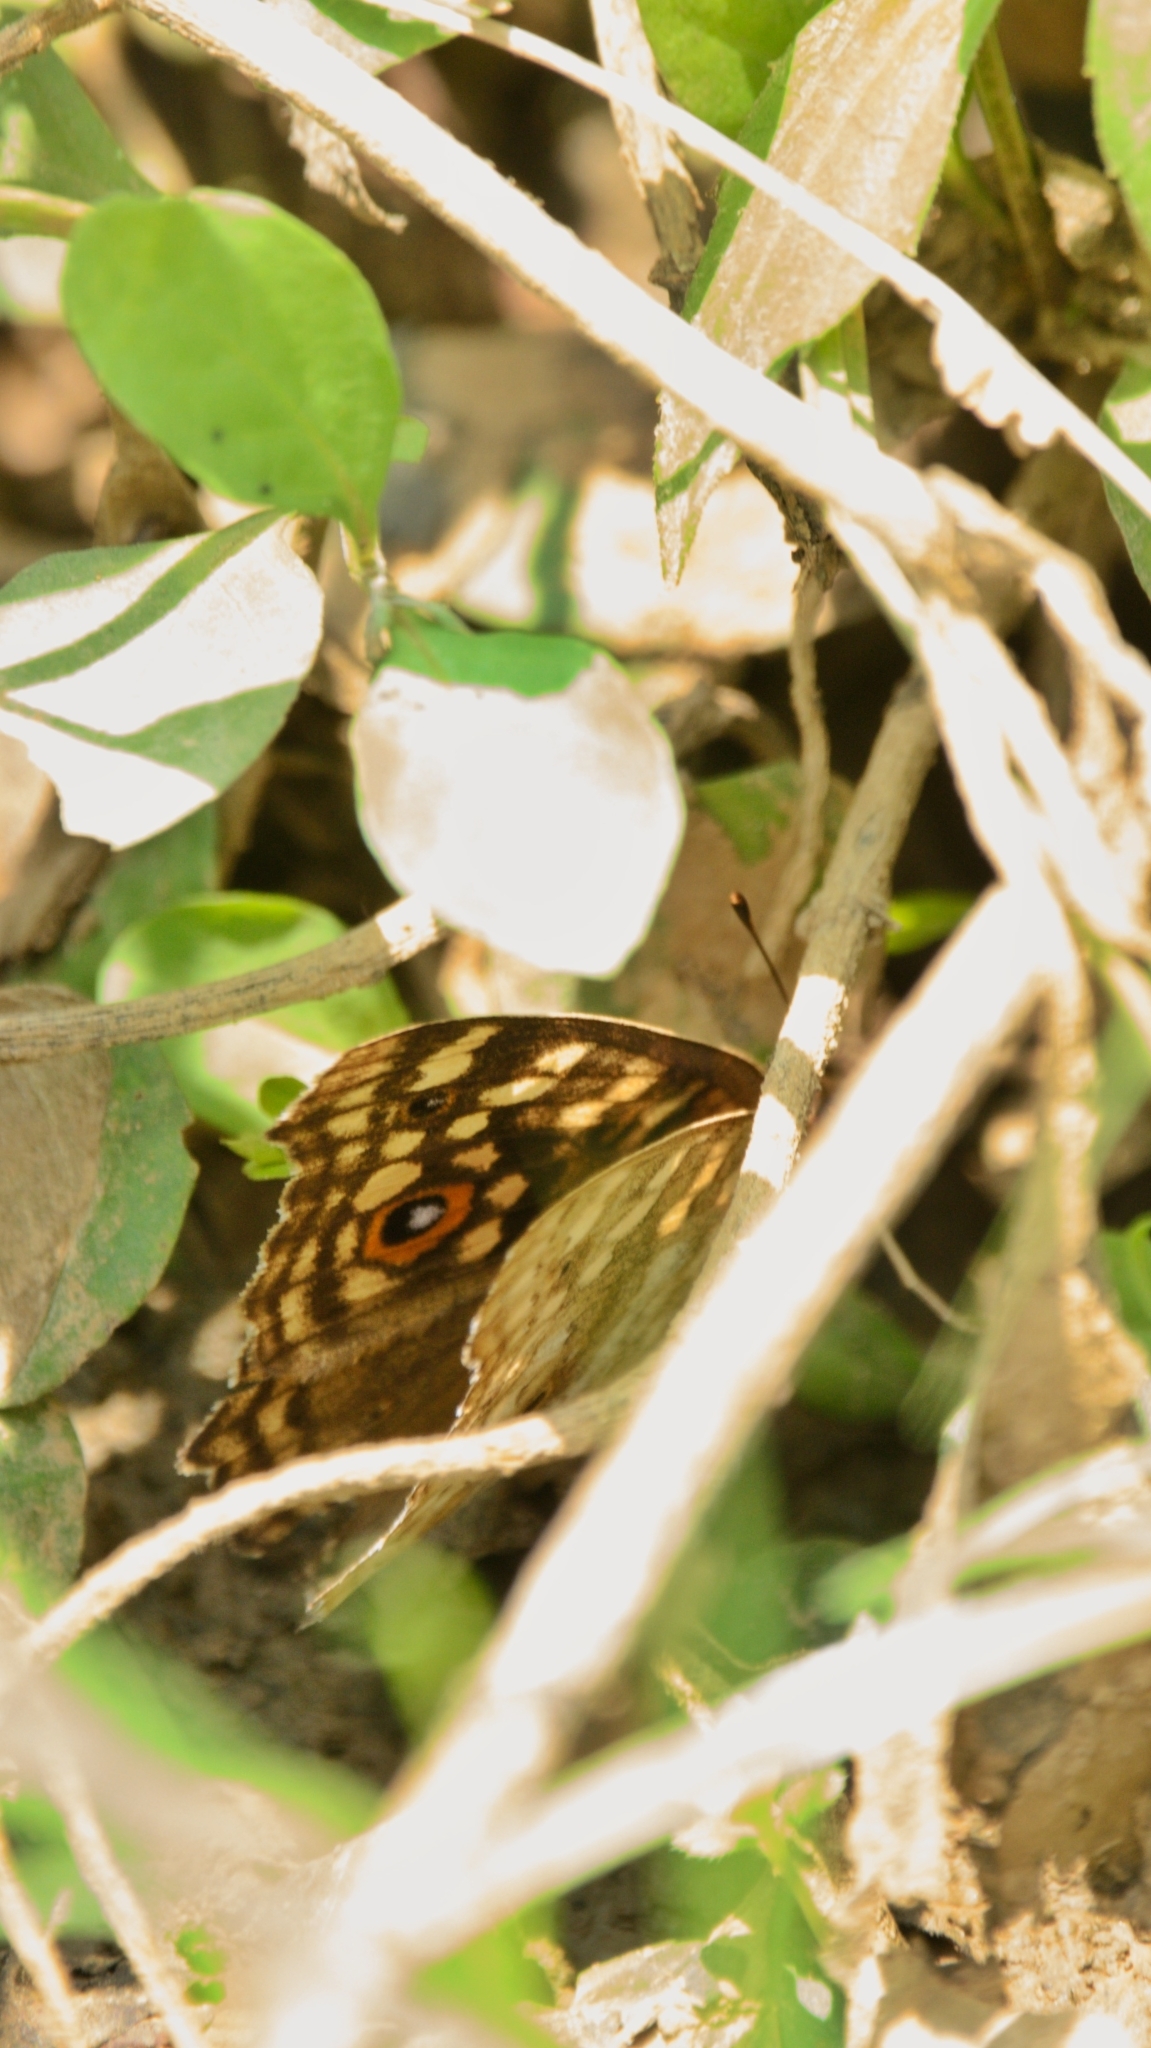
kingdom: Animalia
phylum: Arthropoda
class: Insecta
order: Lepidoptera
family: Nymphalidae
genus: Junonia
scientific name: Junonia lemonias
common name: Lemon pansy
